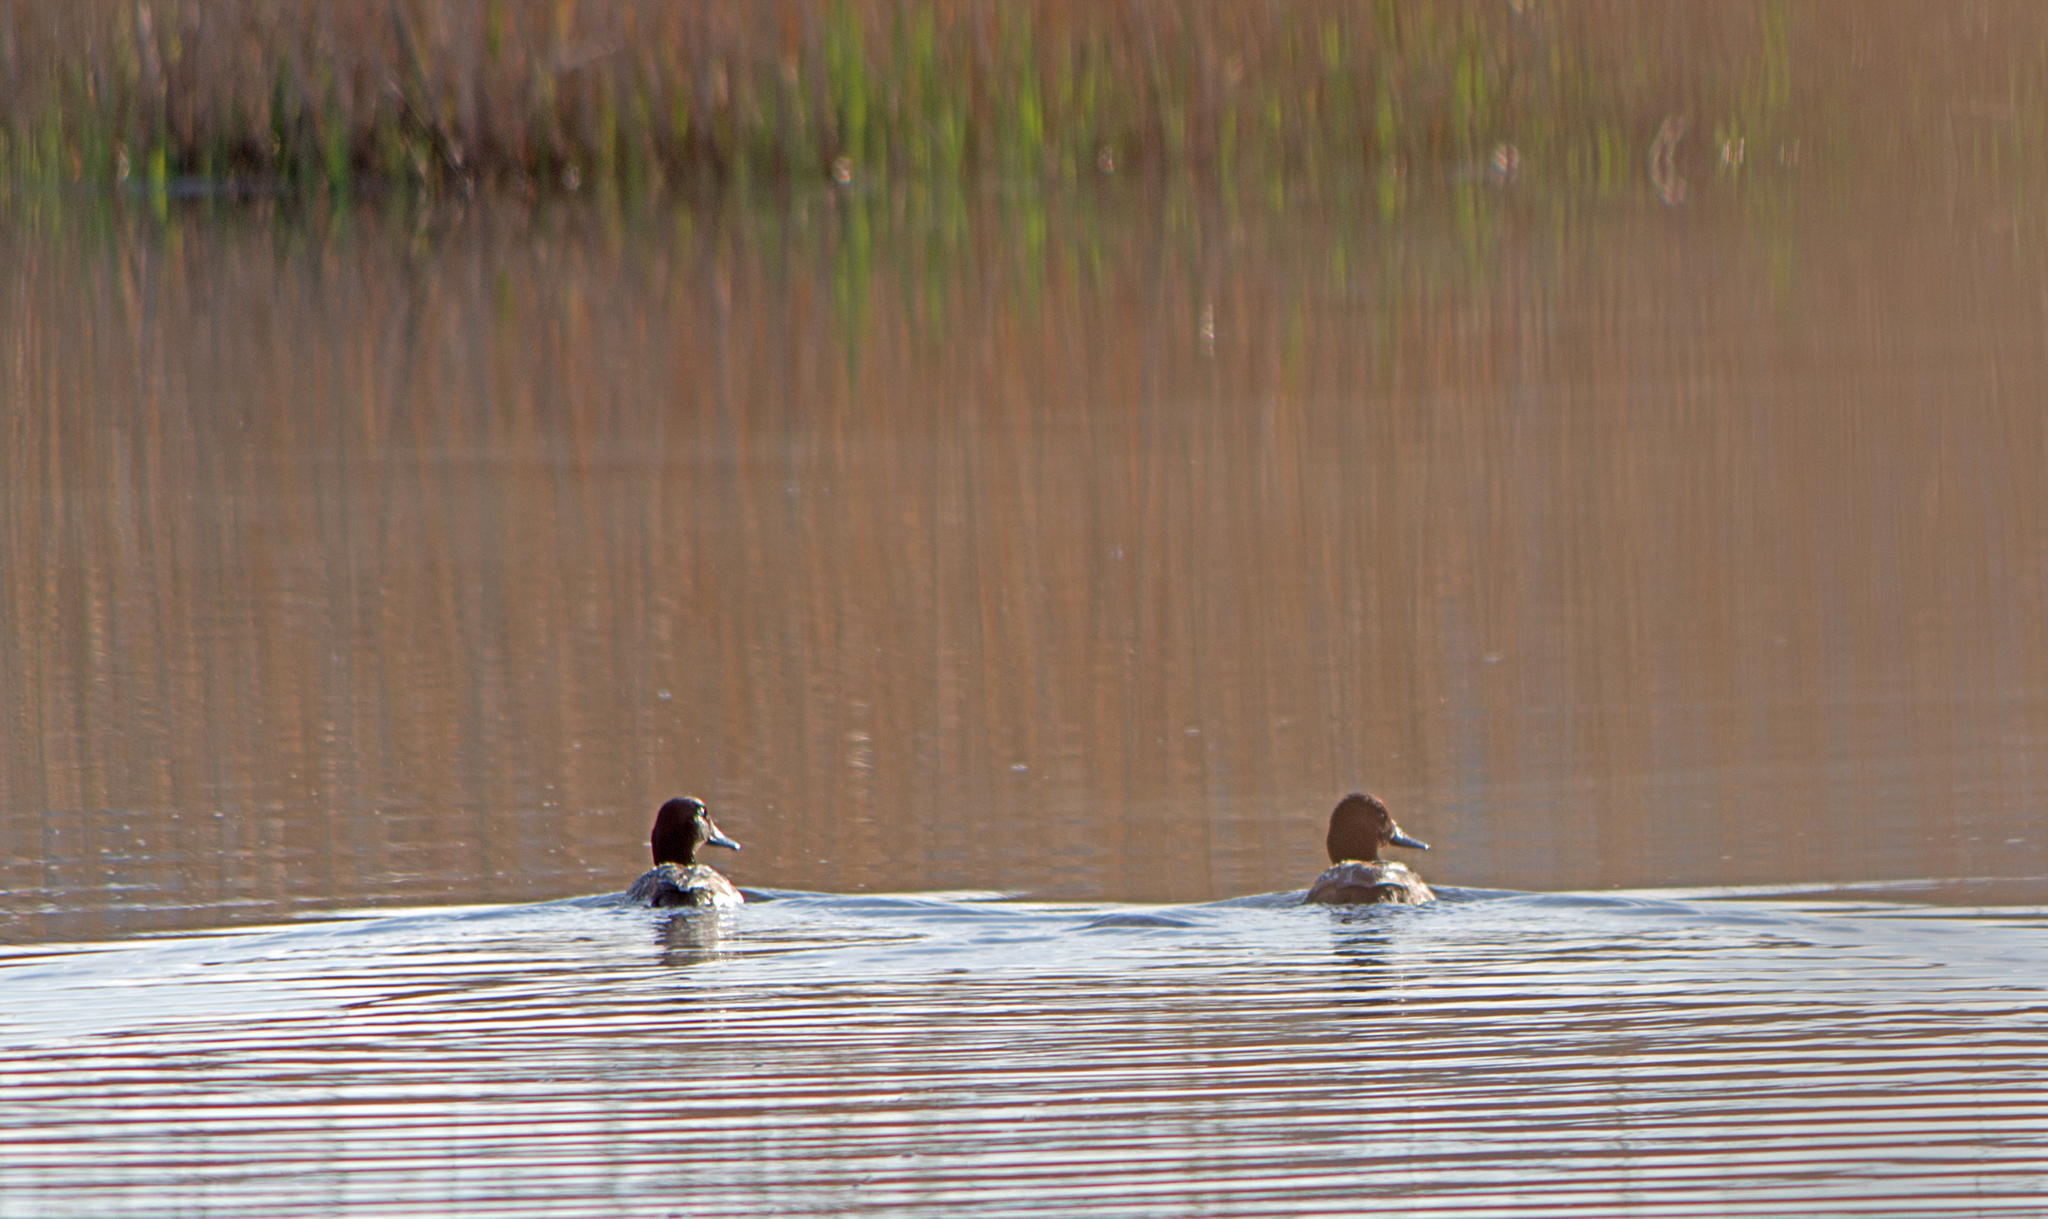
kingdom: Animalia
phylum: Chordata
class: Aves
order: Anseriformes
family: Anatidae
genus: Aythya
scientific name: Aythya nyroca
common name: Ferruginous duck
